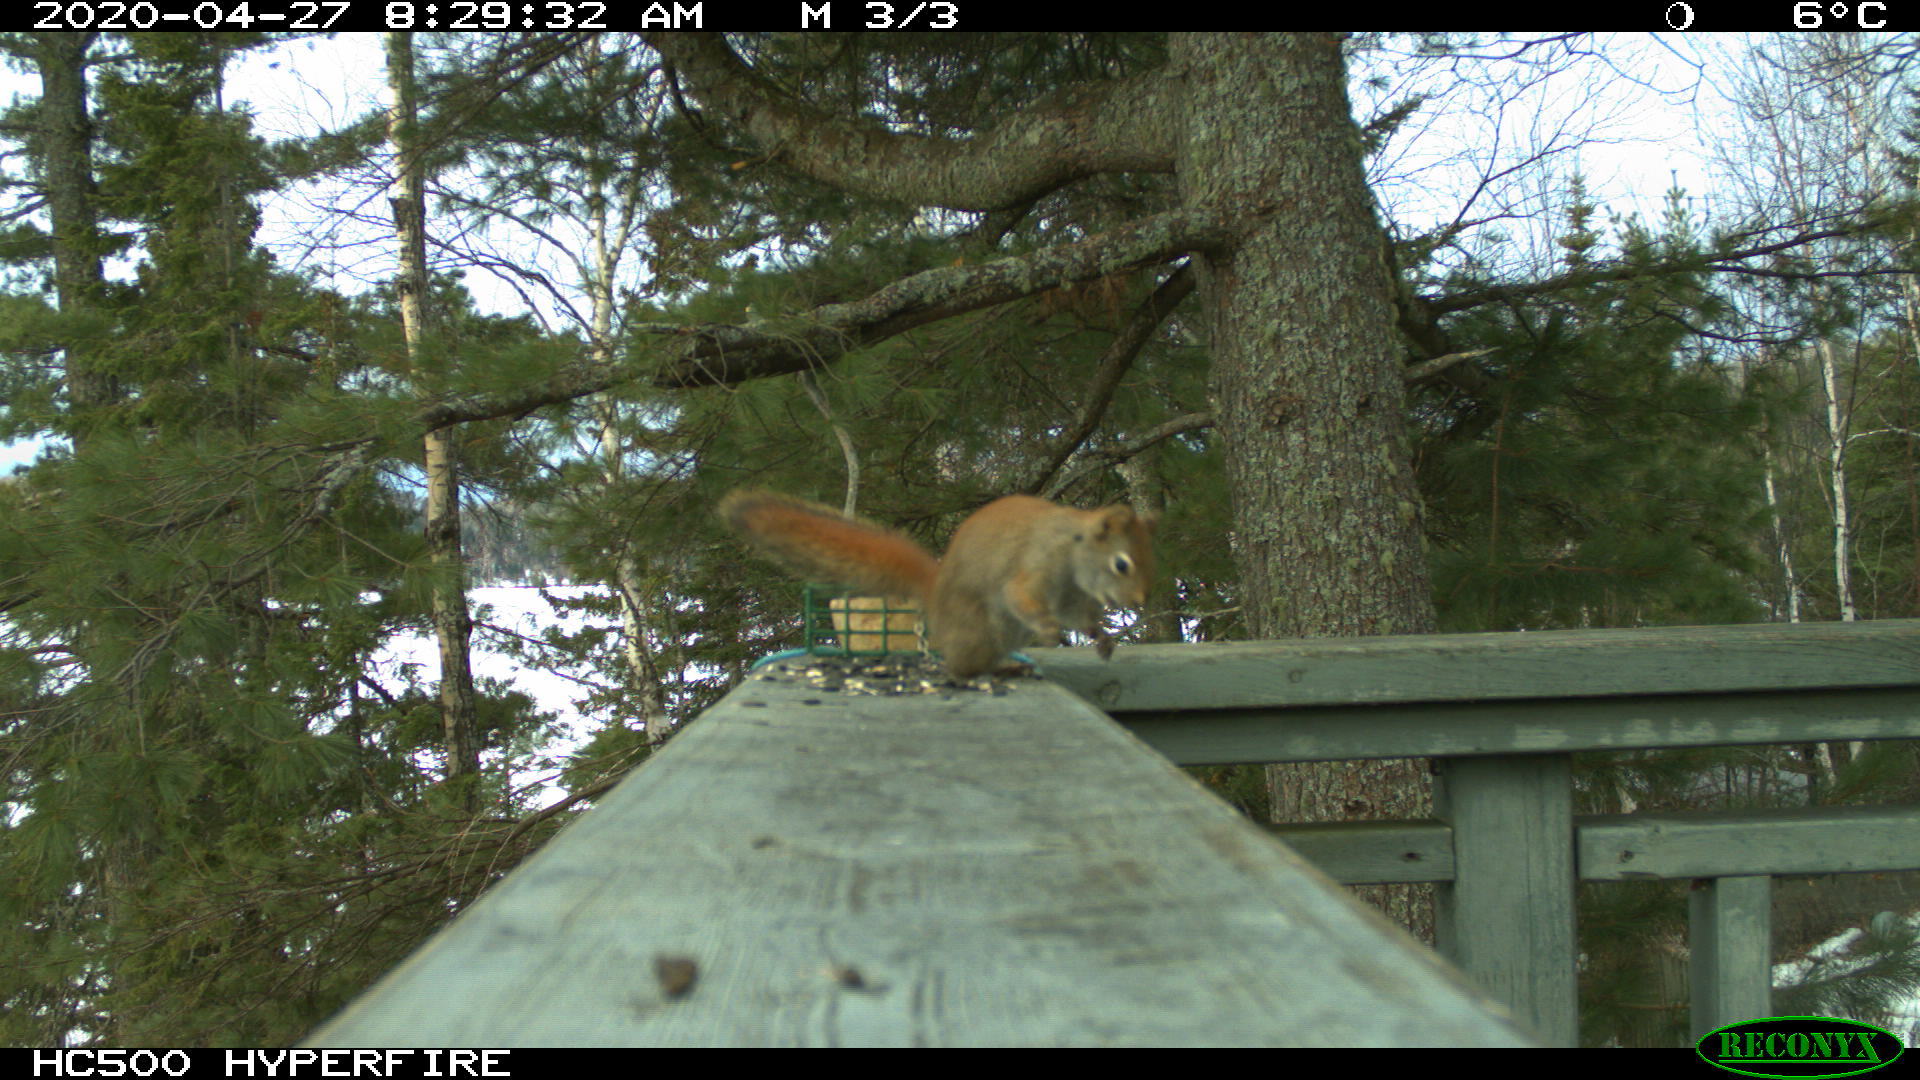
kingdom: Animalia
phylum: Chordata
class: Mammalia
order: Rodentia
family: Sciuridae
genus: Tamiasciurus
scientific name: Tamiasciurus hudsonicus
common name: Red squirrel
